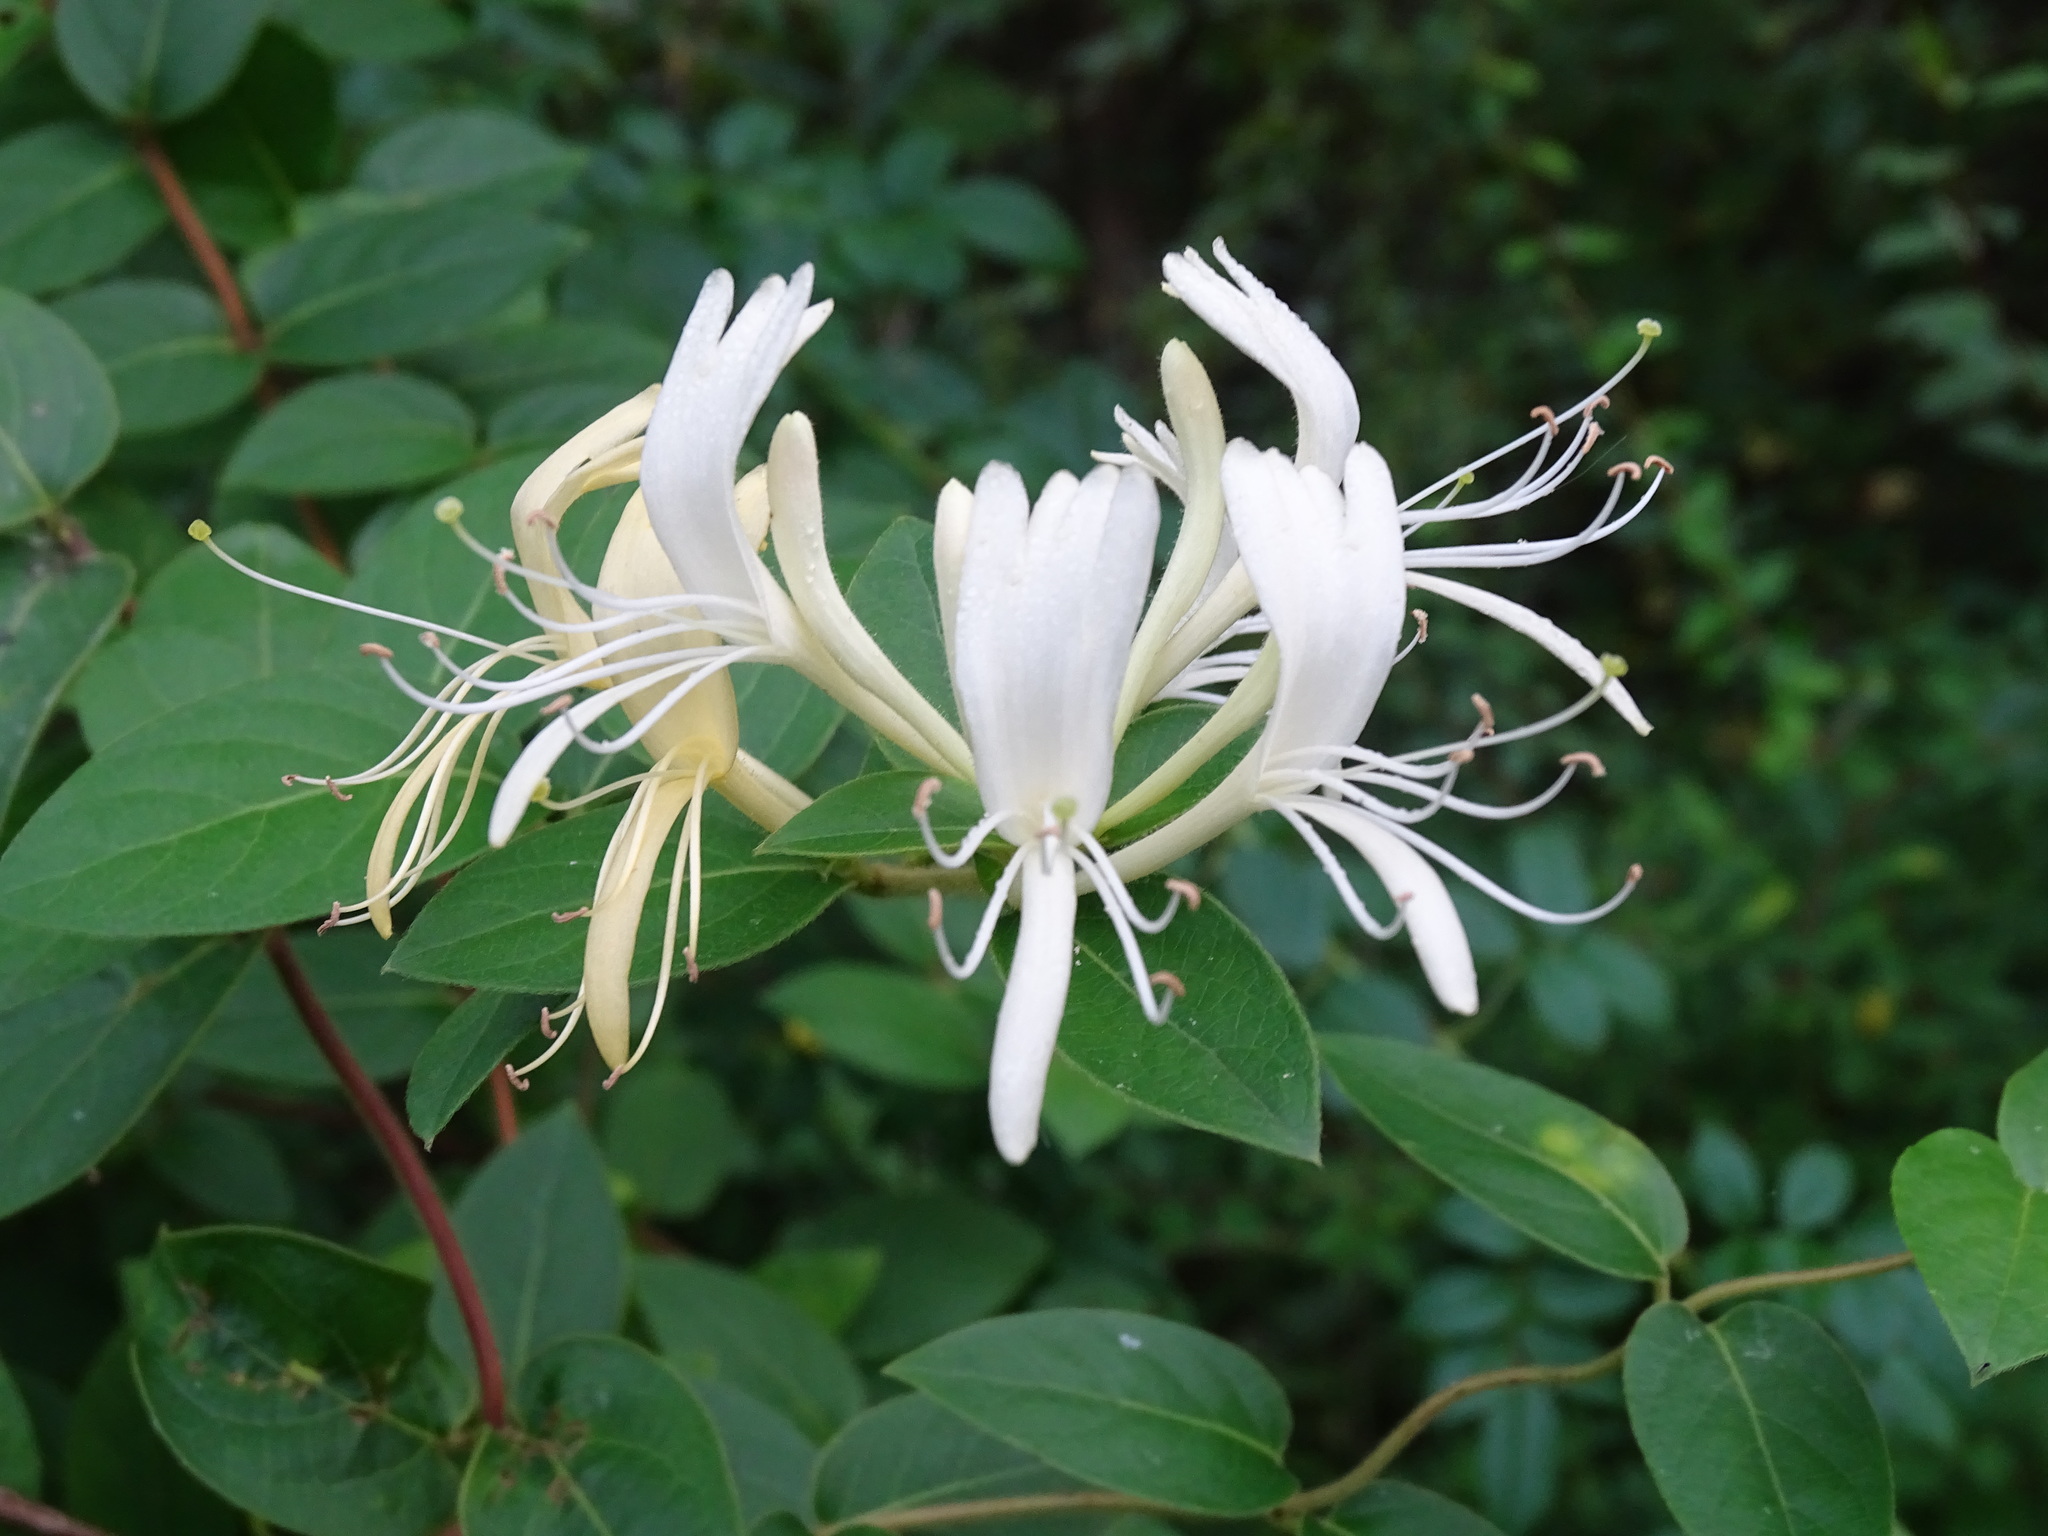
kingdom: Plantae
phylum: Tracheophyta
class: Magnoliopsida
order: Dipsacales
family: Caprifoliaceae
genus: Lonicera
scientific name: Lonicera japonica
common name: Japanese honeysuckle
